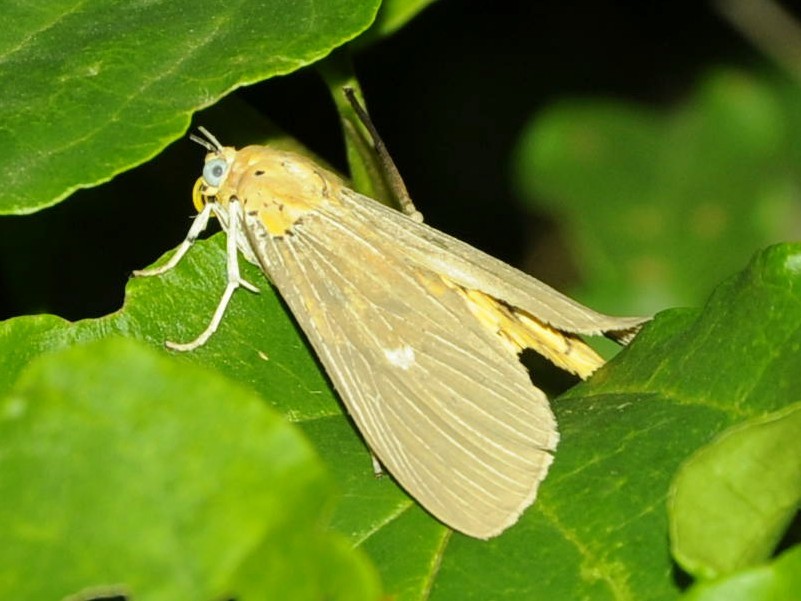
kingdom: Animalia
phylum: Arthropoda
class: Insecta
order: Lepidoptera
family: Erebidae
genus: Asota
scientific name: Asota caricae
